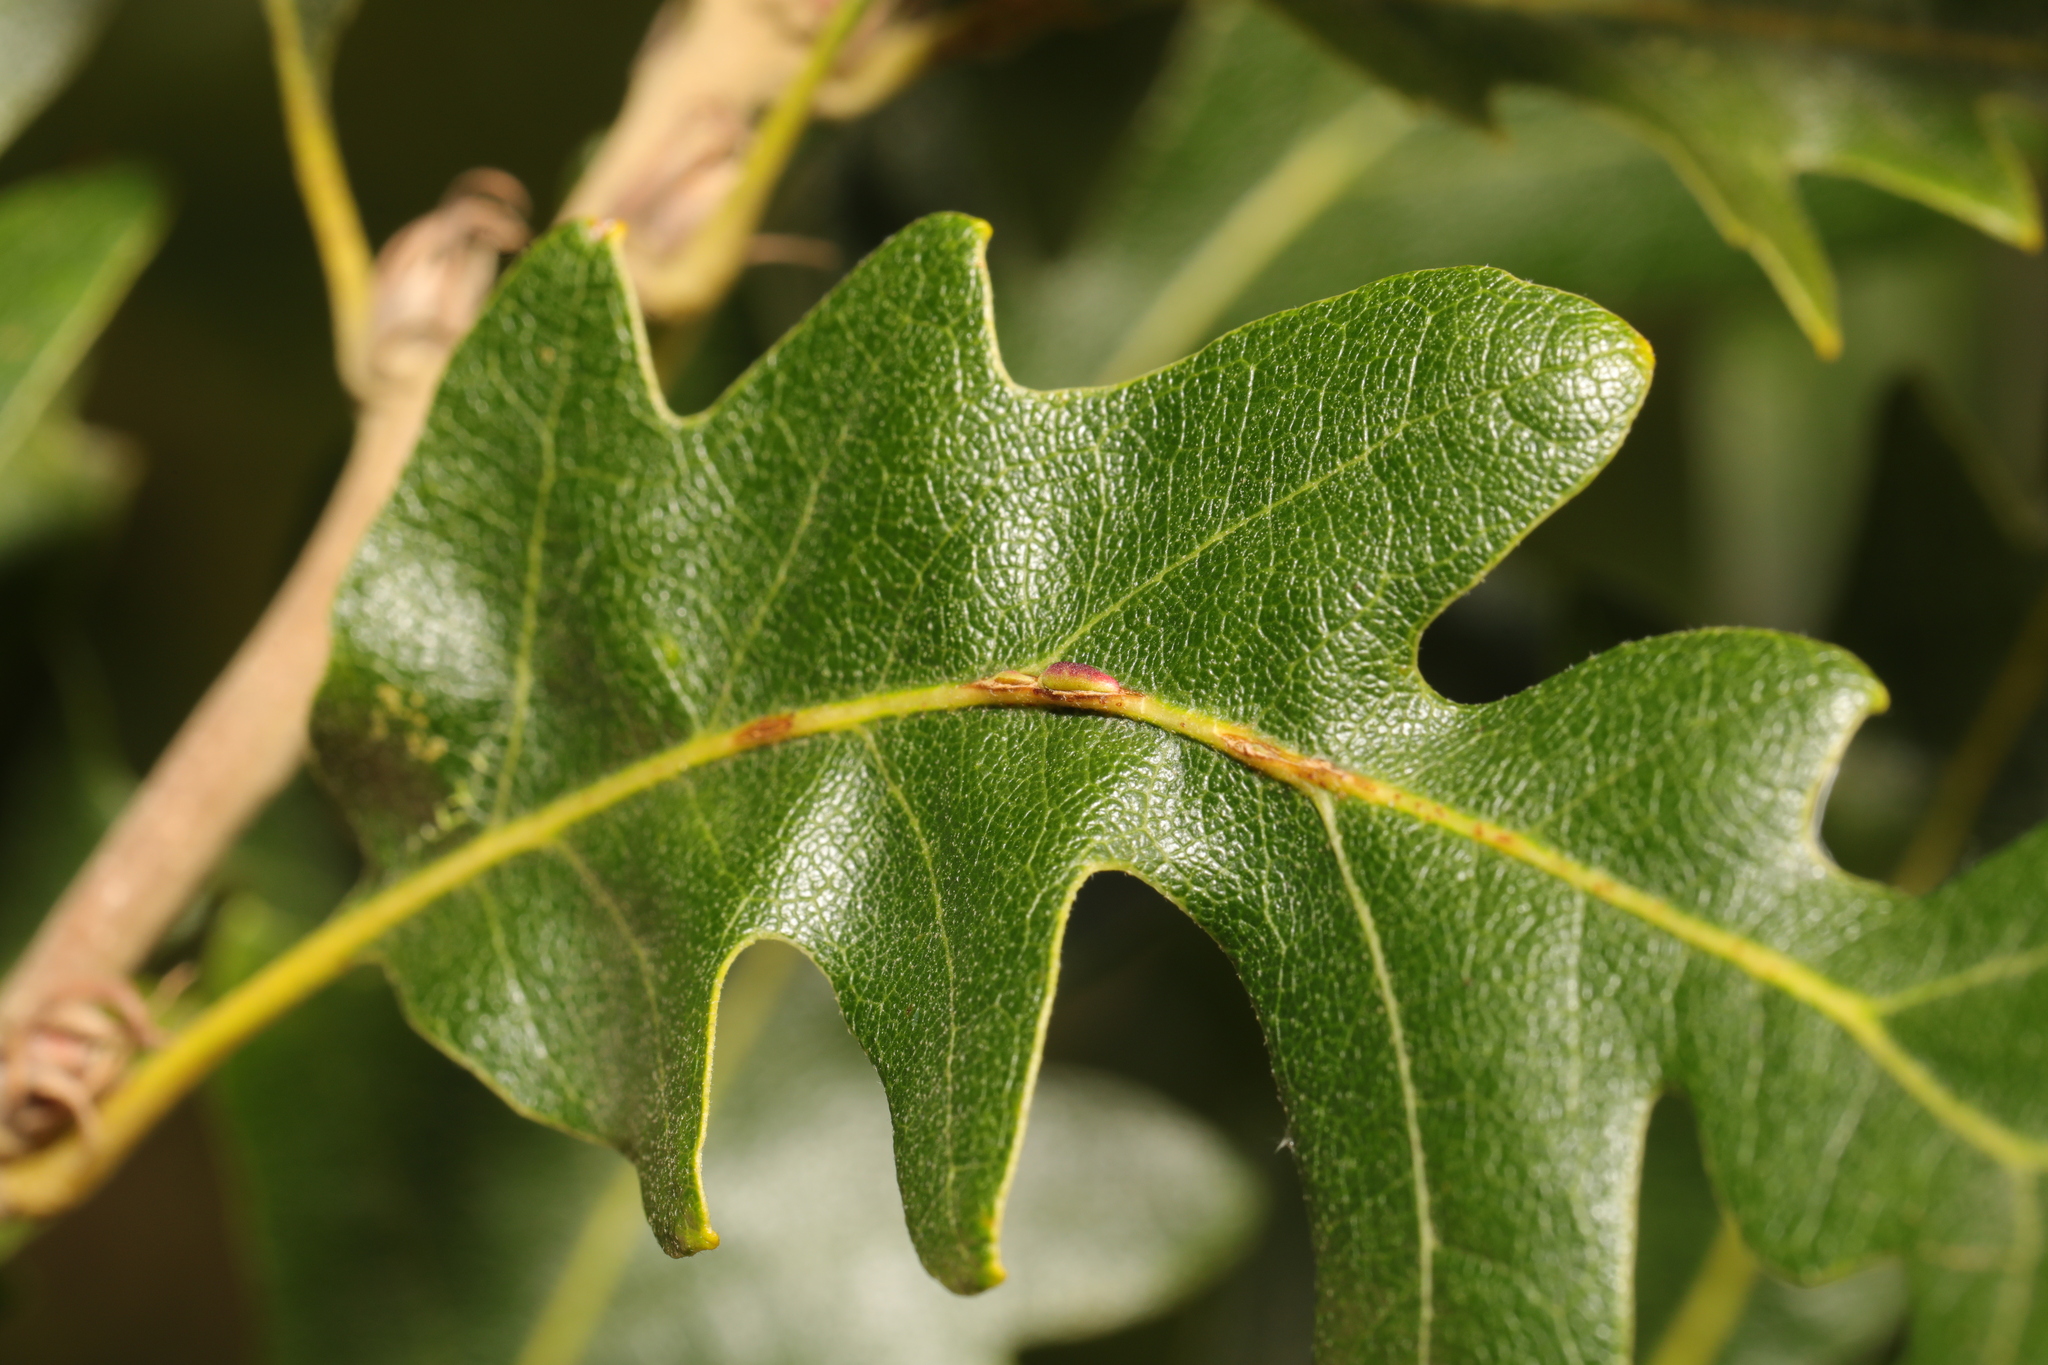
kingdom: Animalia
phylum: Arthropoda
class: Insecta
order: Hymenoptera
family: Cynipidae
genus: Neuroterus
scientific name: Neuroterus saliens
